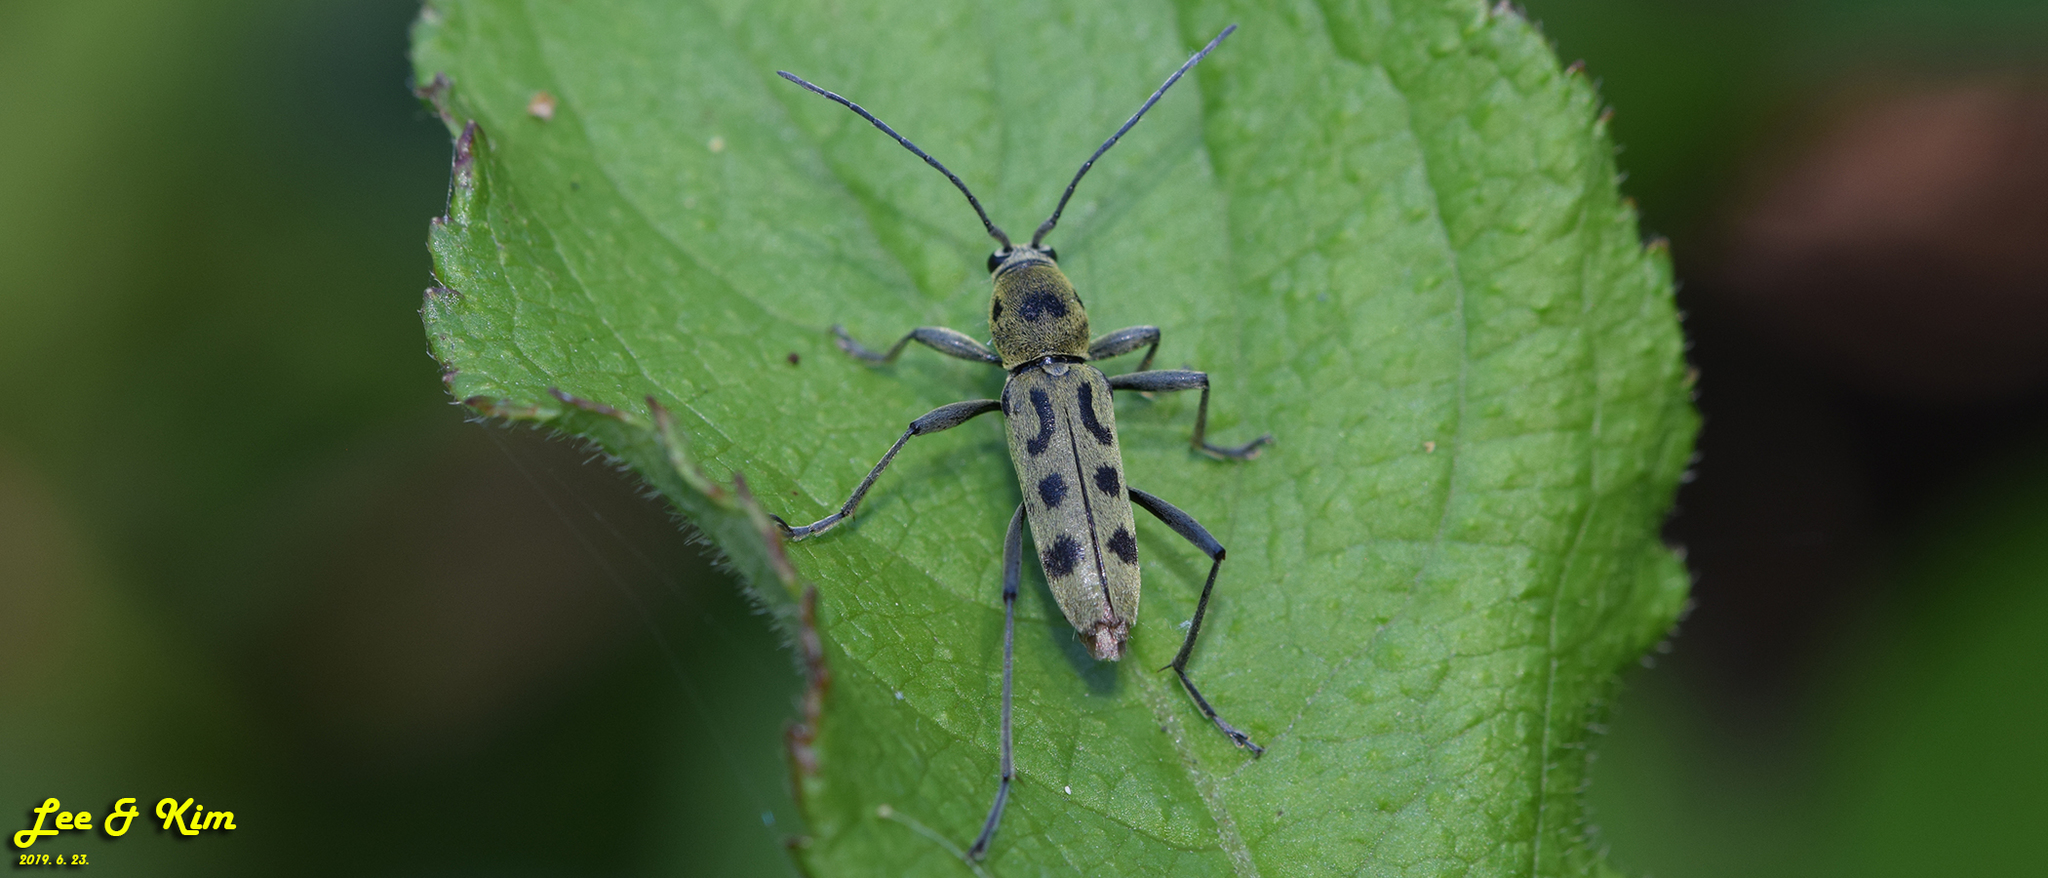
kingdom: Animalia
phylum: Arthropoda
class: Insecta
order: Coleoptera
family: Cerambycidae
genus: Chlorophorus
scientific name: Chlorophorus simillimus
